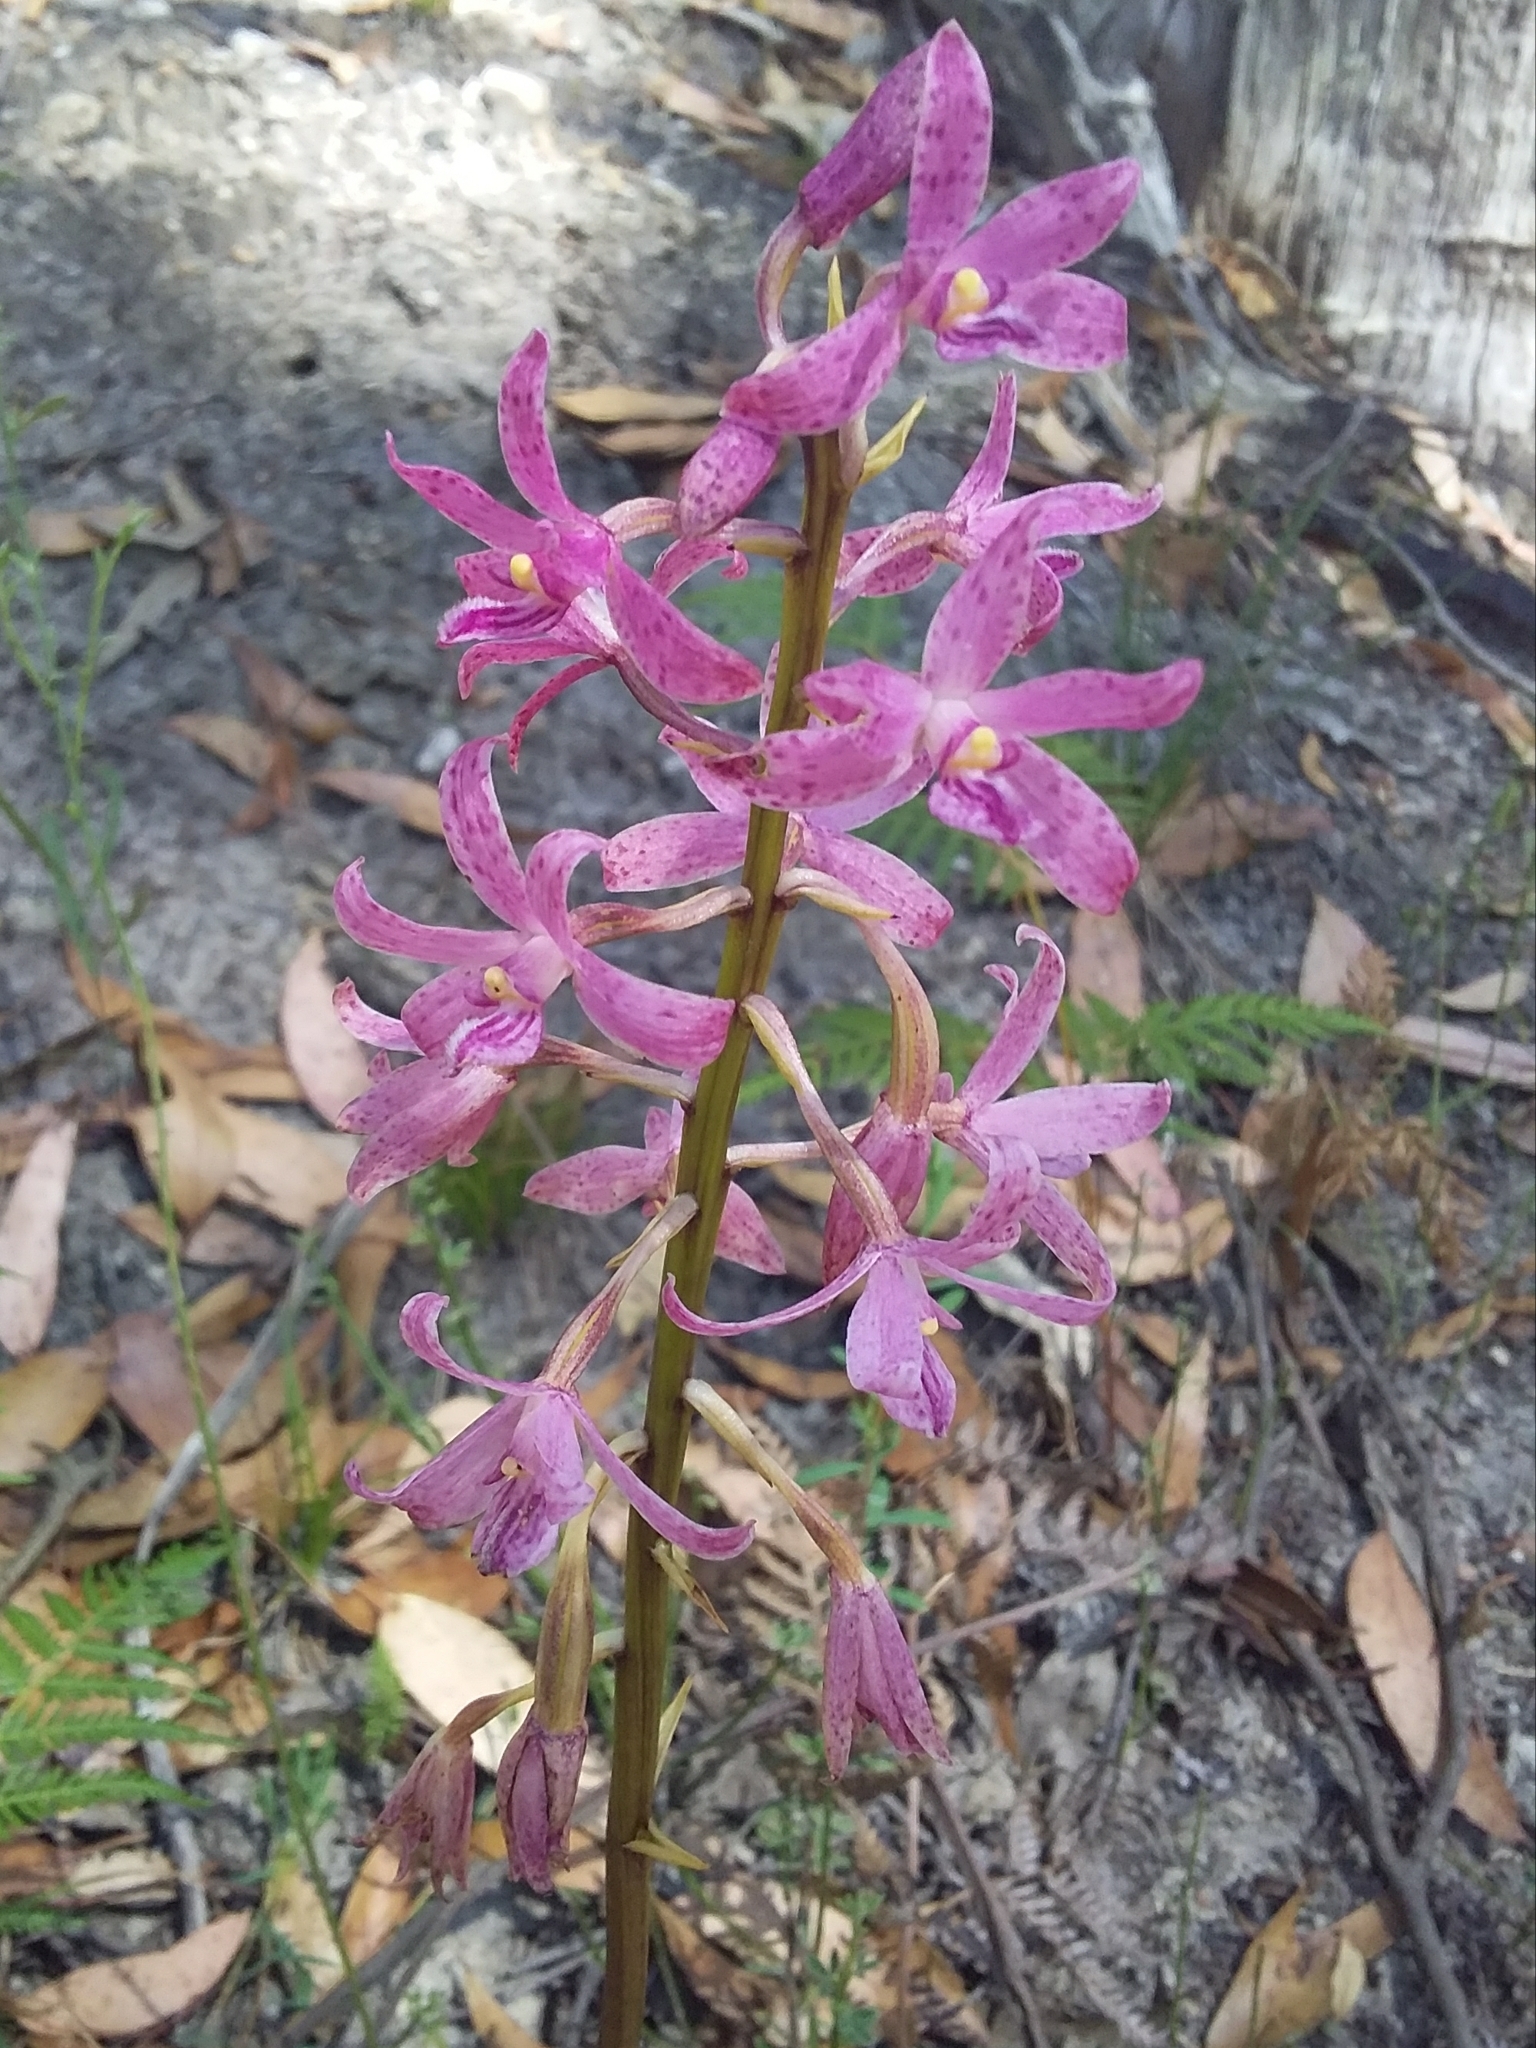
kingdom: Plantae
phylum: Tracheophyta
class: Liliopsida
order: Asparagales
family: Orchidaceae
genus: Dipodium
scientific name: Dipodium roseum
